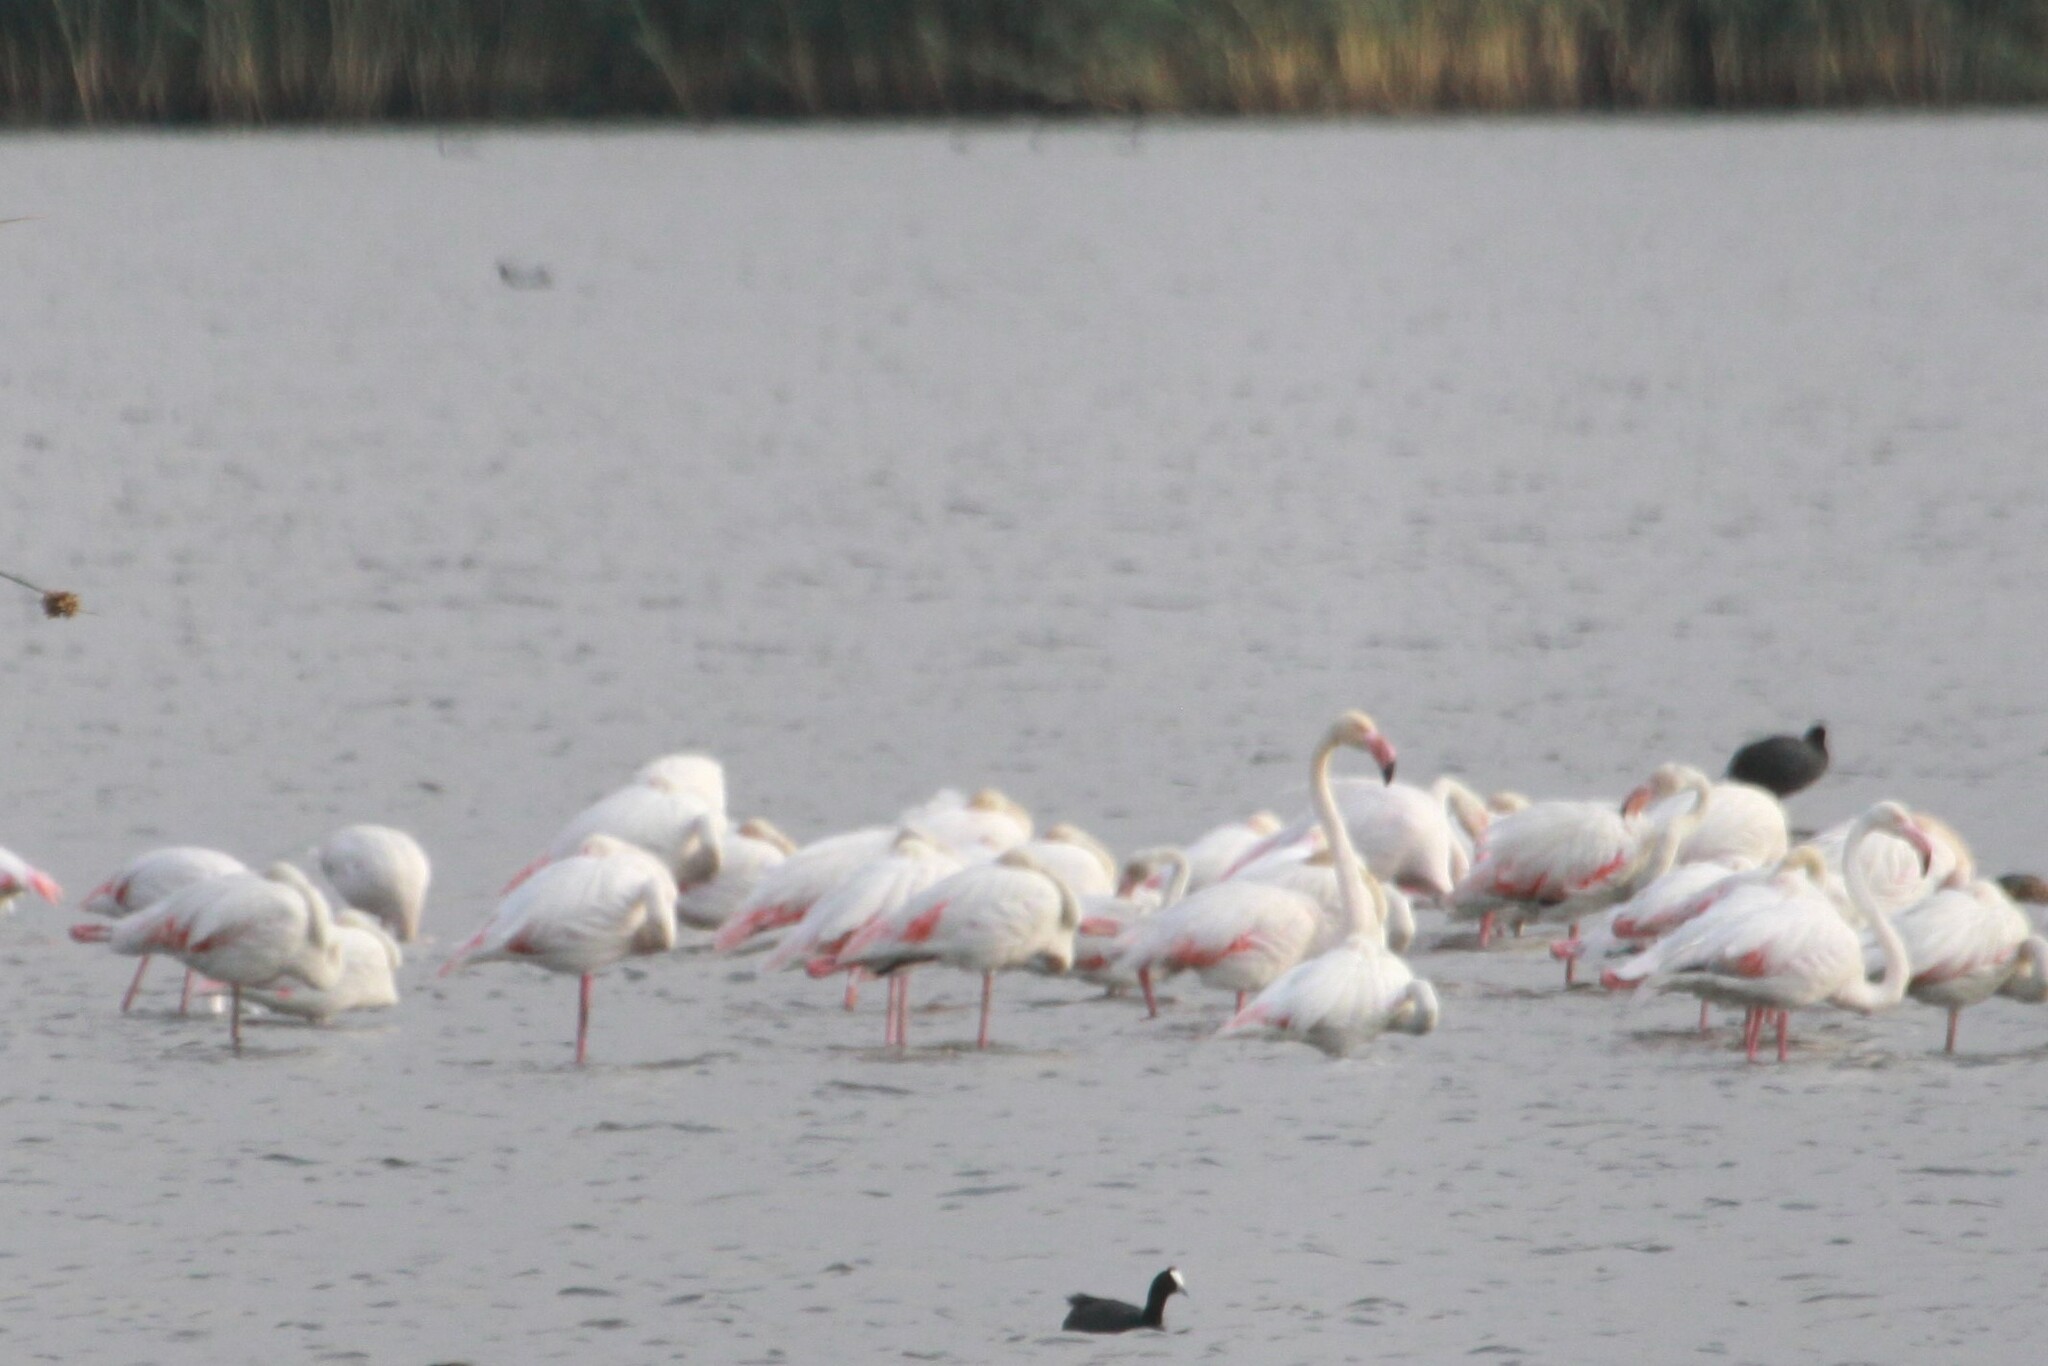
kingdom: Animalia
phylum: Chordata
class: Aves
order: Phoenicopteriformes
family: Phoenicopteridae
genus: Phoenicopterus
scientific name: Phoenicopterus roseus
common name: Greater flamingo
